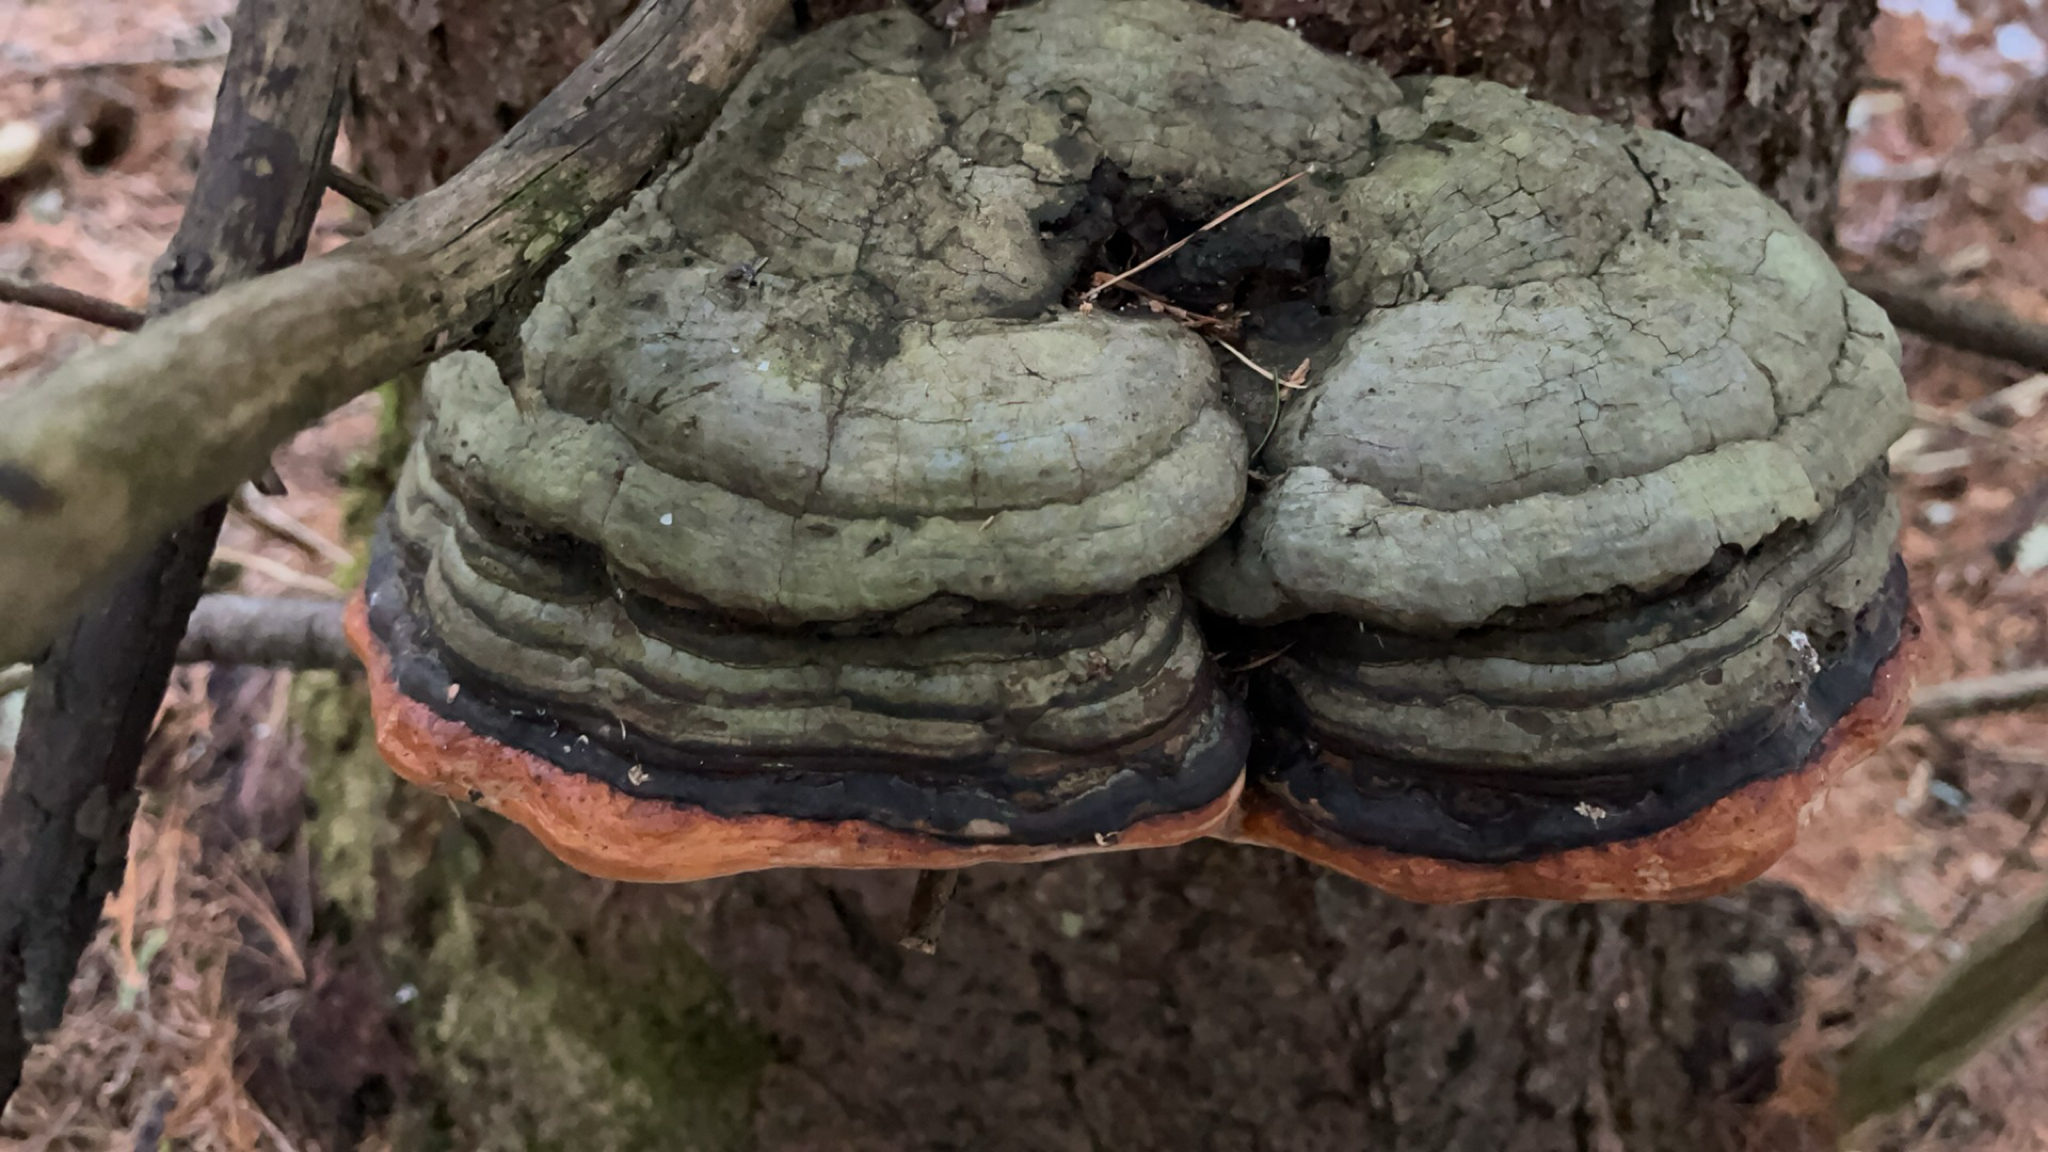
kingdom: Fungi
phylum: Basidiomycota
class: Agaricomycetes
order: Polyporales
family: Fomitopsidaceae
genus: Fomitopsis
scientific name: Fomitopsis mounceae
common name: Northern red belt
